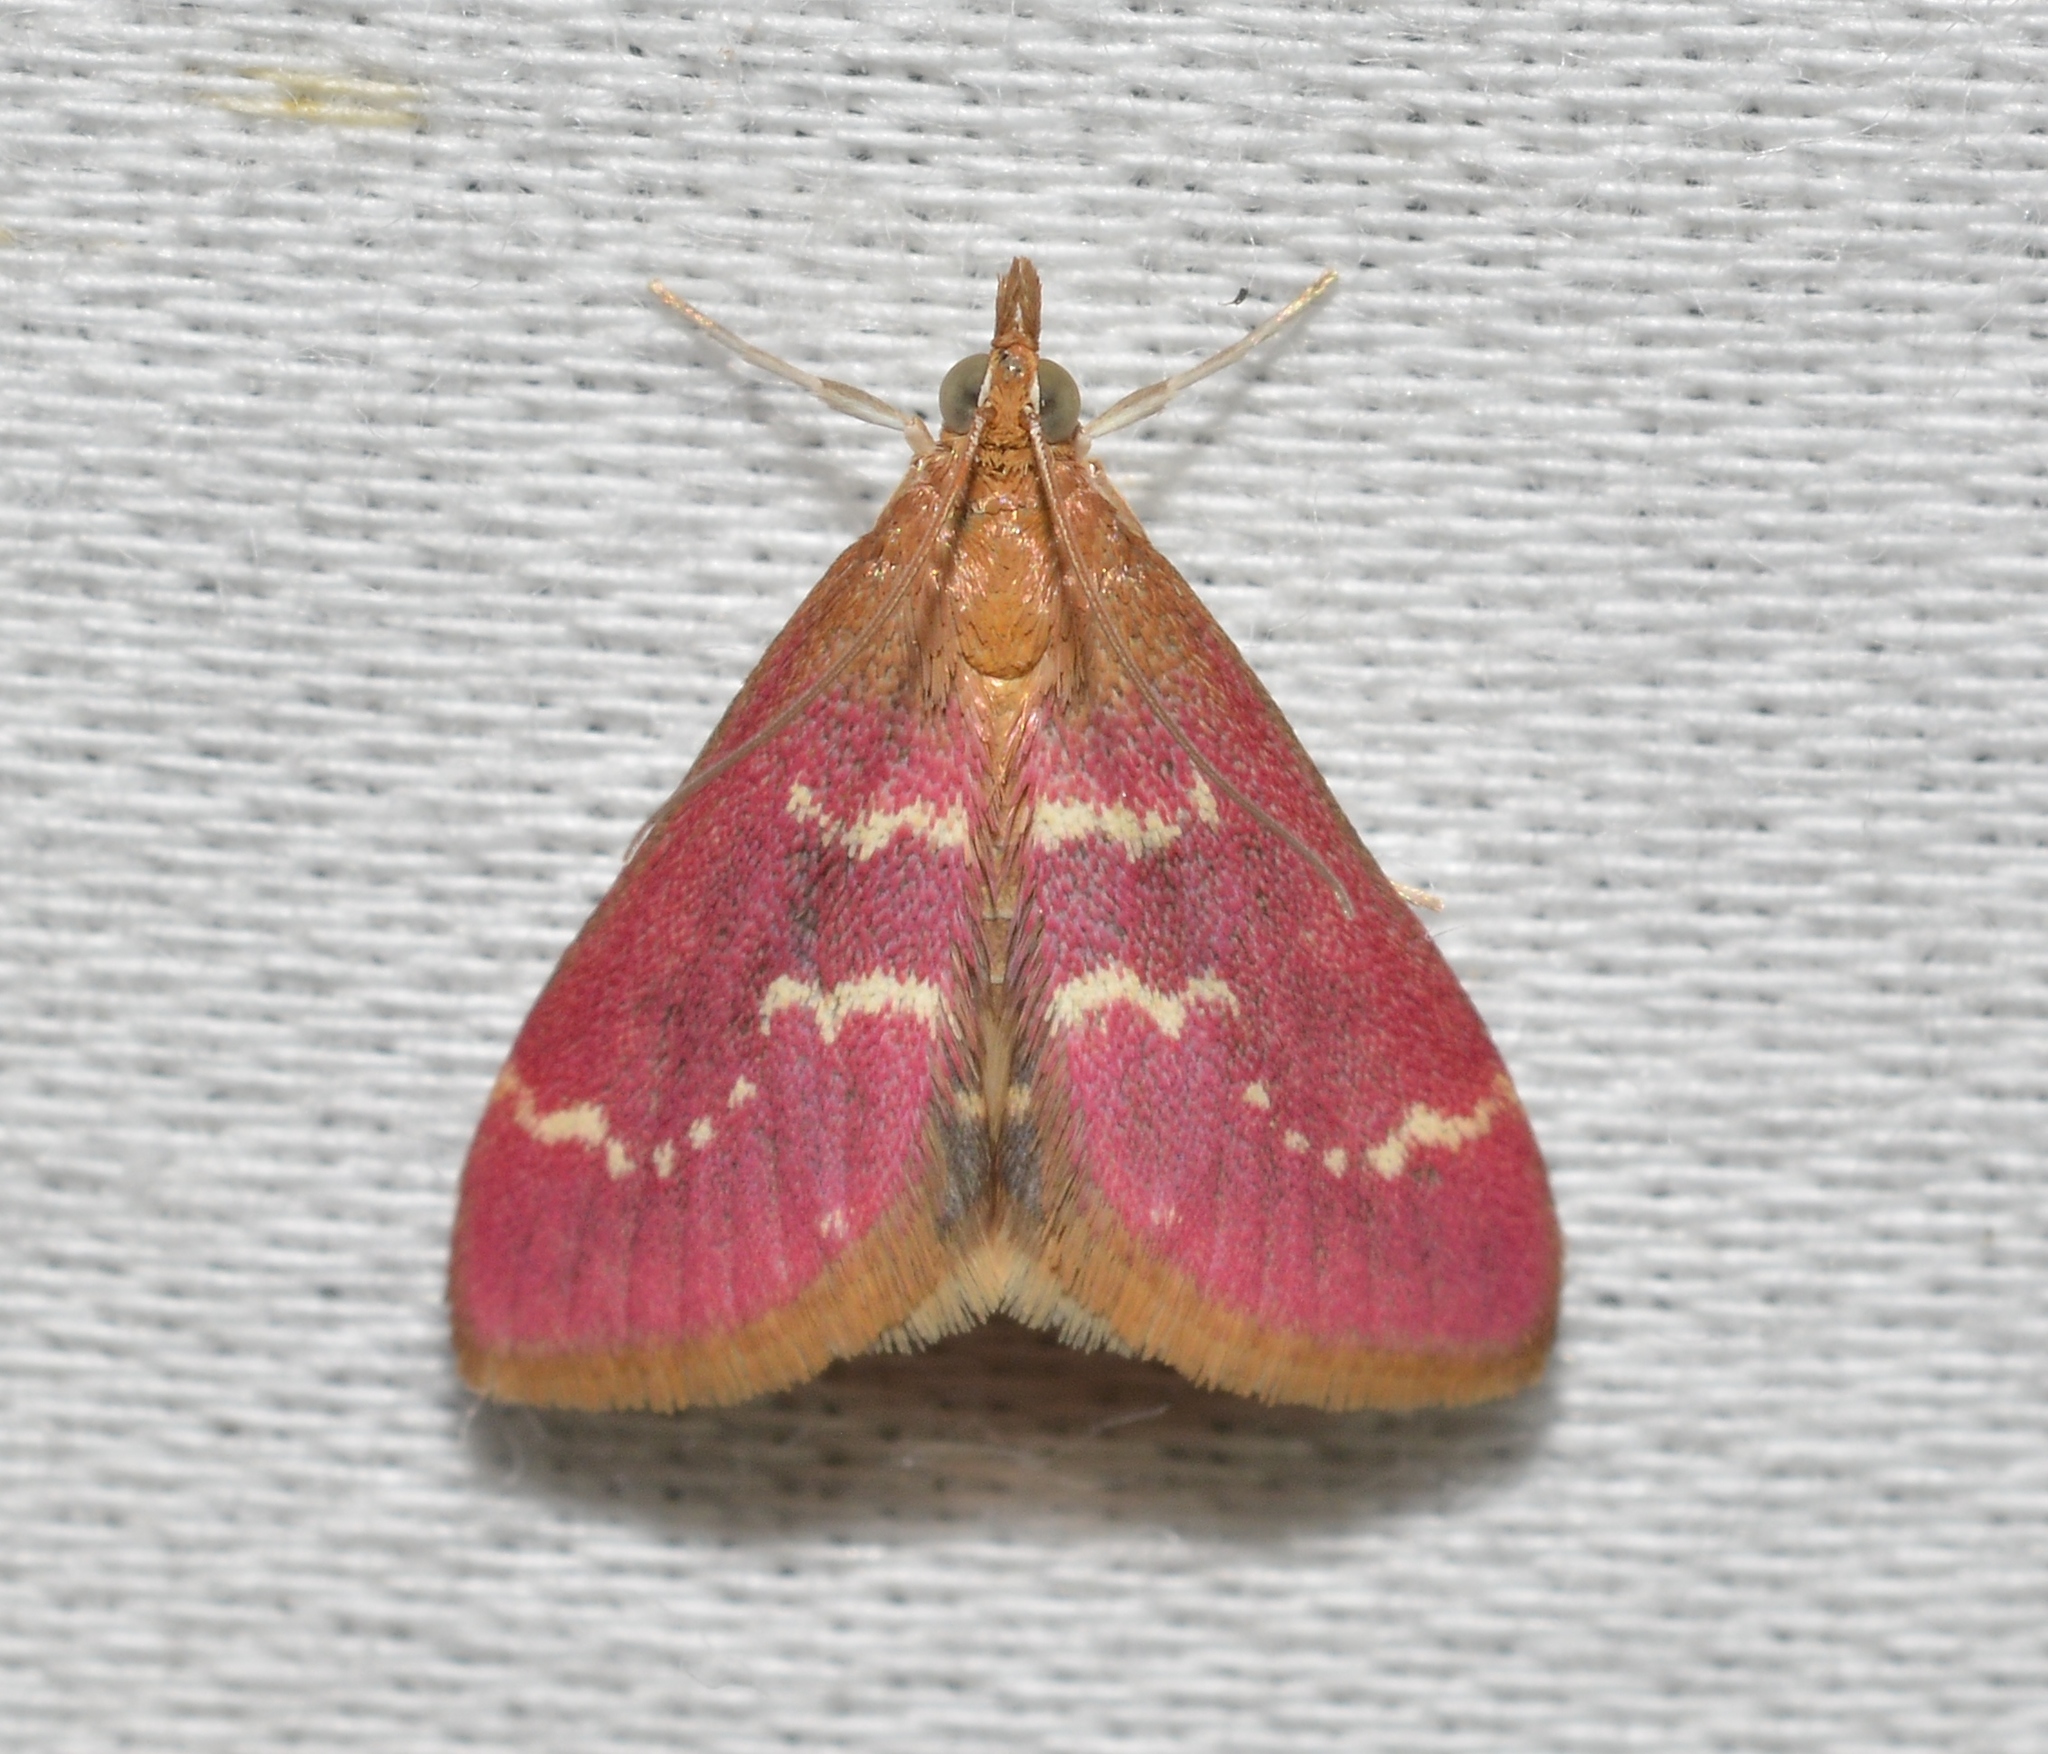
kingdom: Animalia
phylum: Arthropoda
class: Insecta
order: Lepidoptera
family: Crambidae
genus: Pyrausta
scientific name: Pyrausta signatalis
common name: Raspberry pyrausta moth
